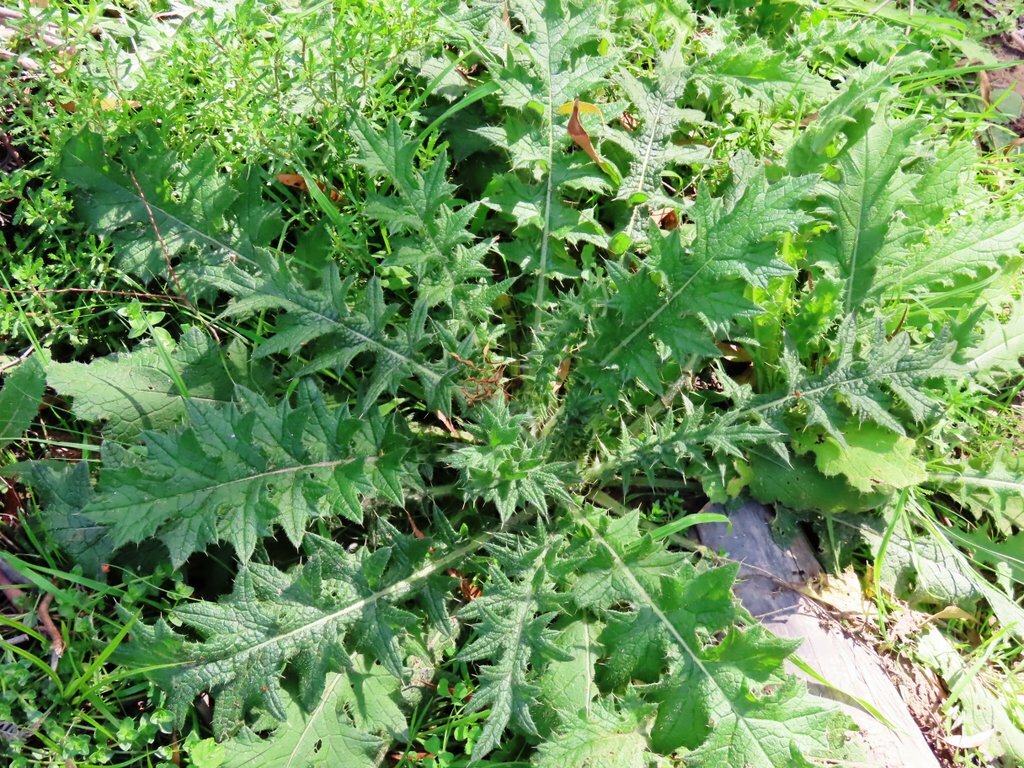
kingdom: Plantae
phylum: Tracheophyta
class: Magnoliopsida
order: Asterales
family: Asteraceae
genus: Cirsium
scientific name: Cirsium vulgare
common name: Bull thistle
